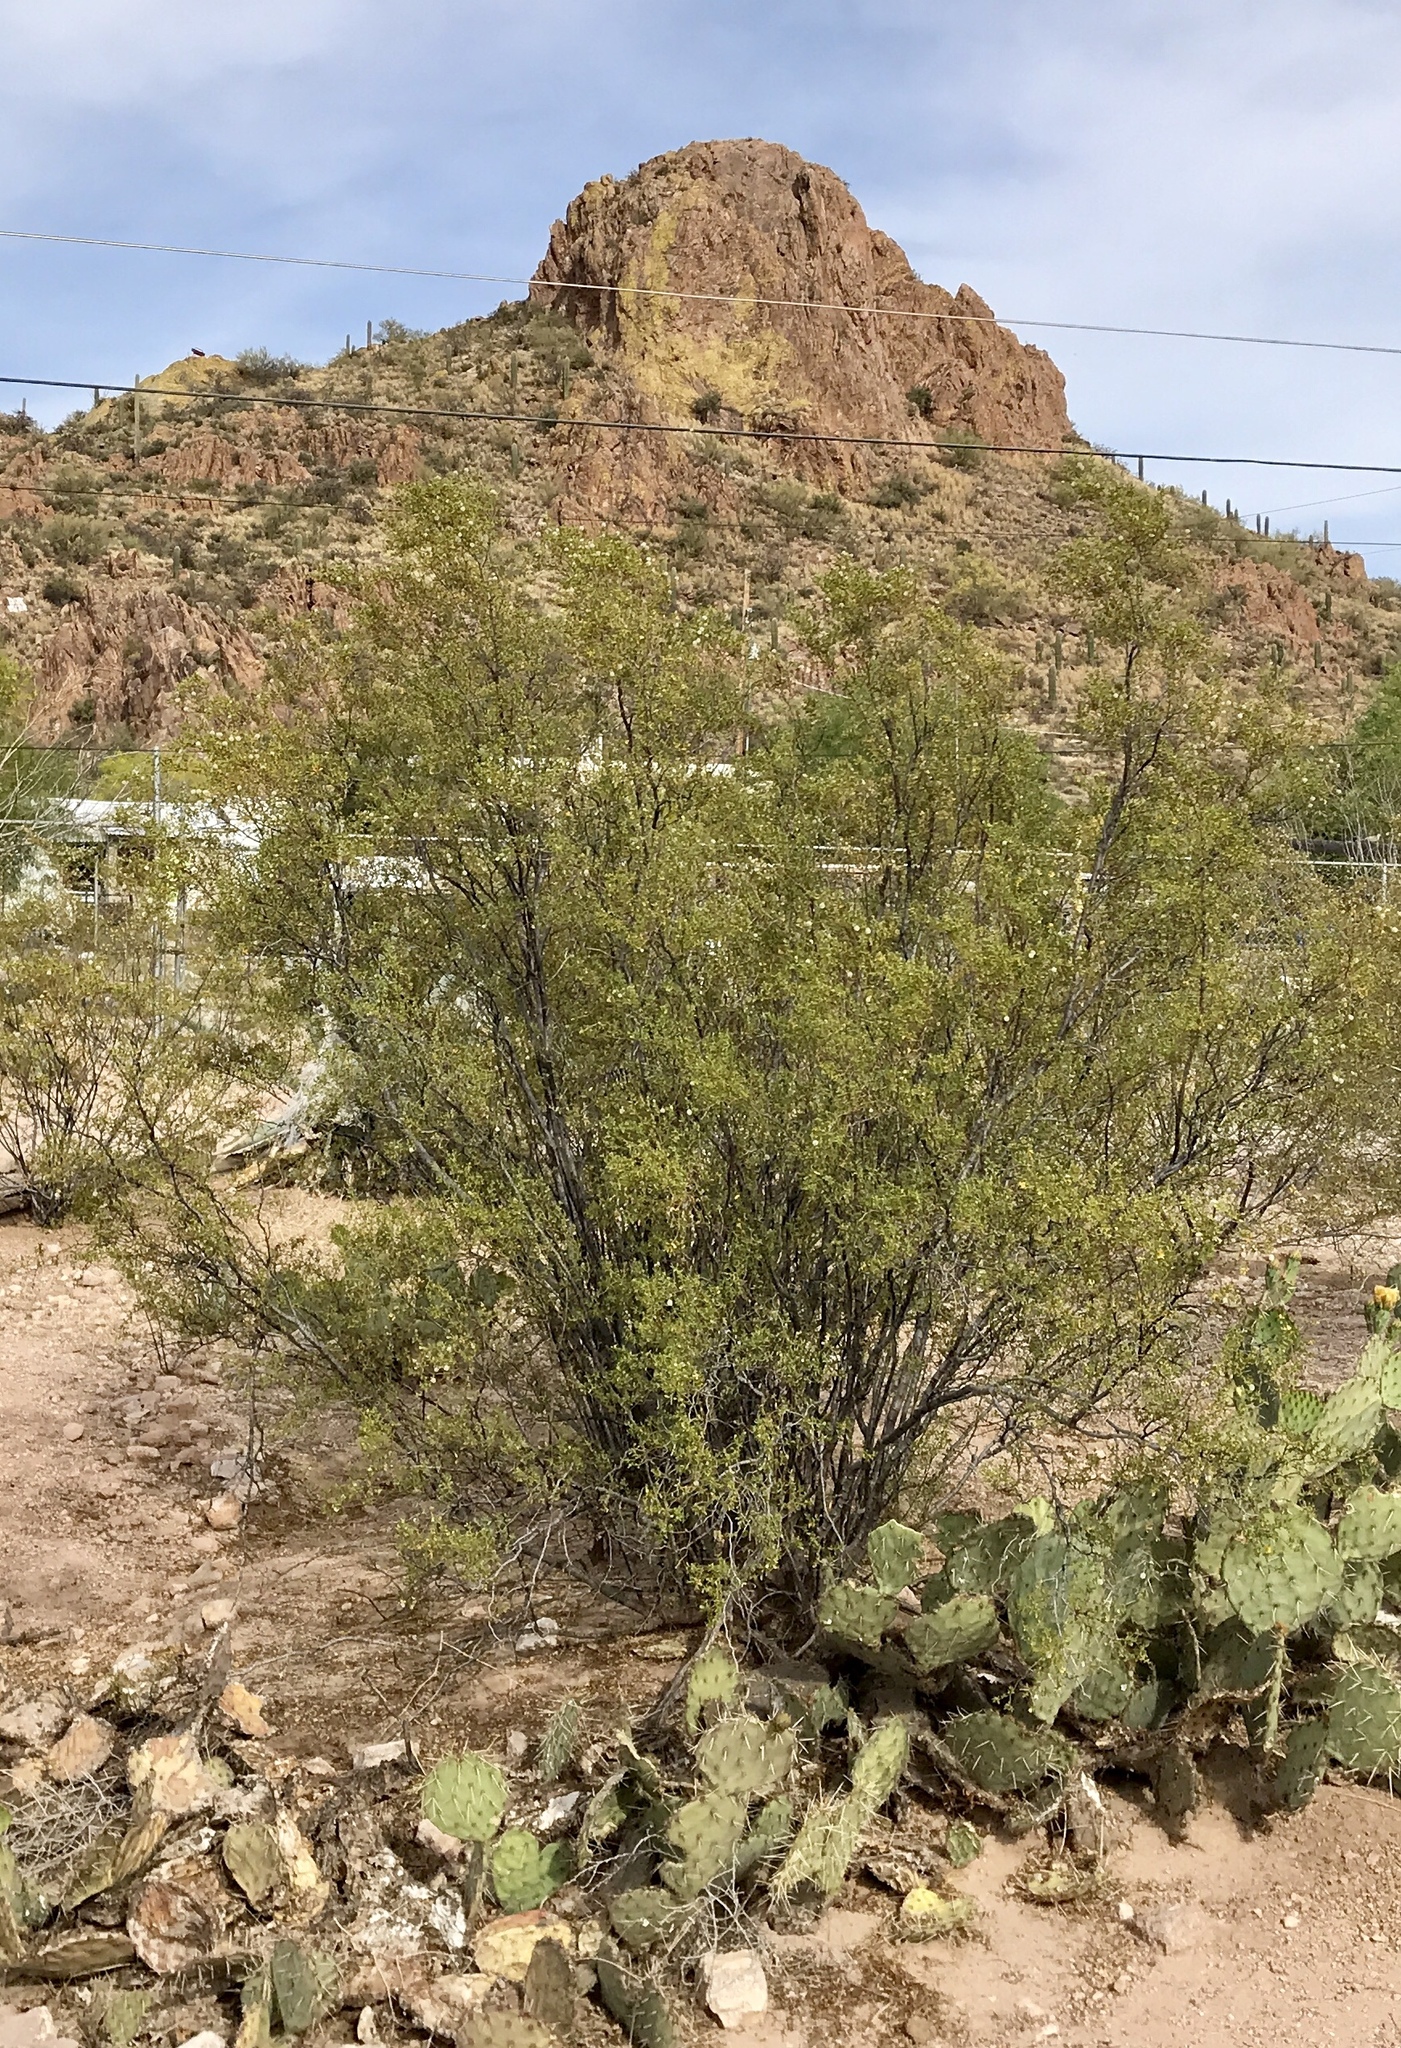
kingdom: Plantae
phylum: Tracheophyta
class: Magnoliopsida
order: Zygophyllales
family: Zygophyllaceae
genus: Larrea
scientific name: Larrea tridentata
